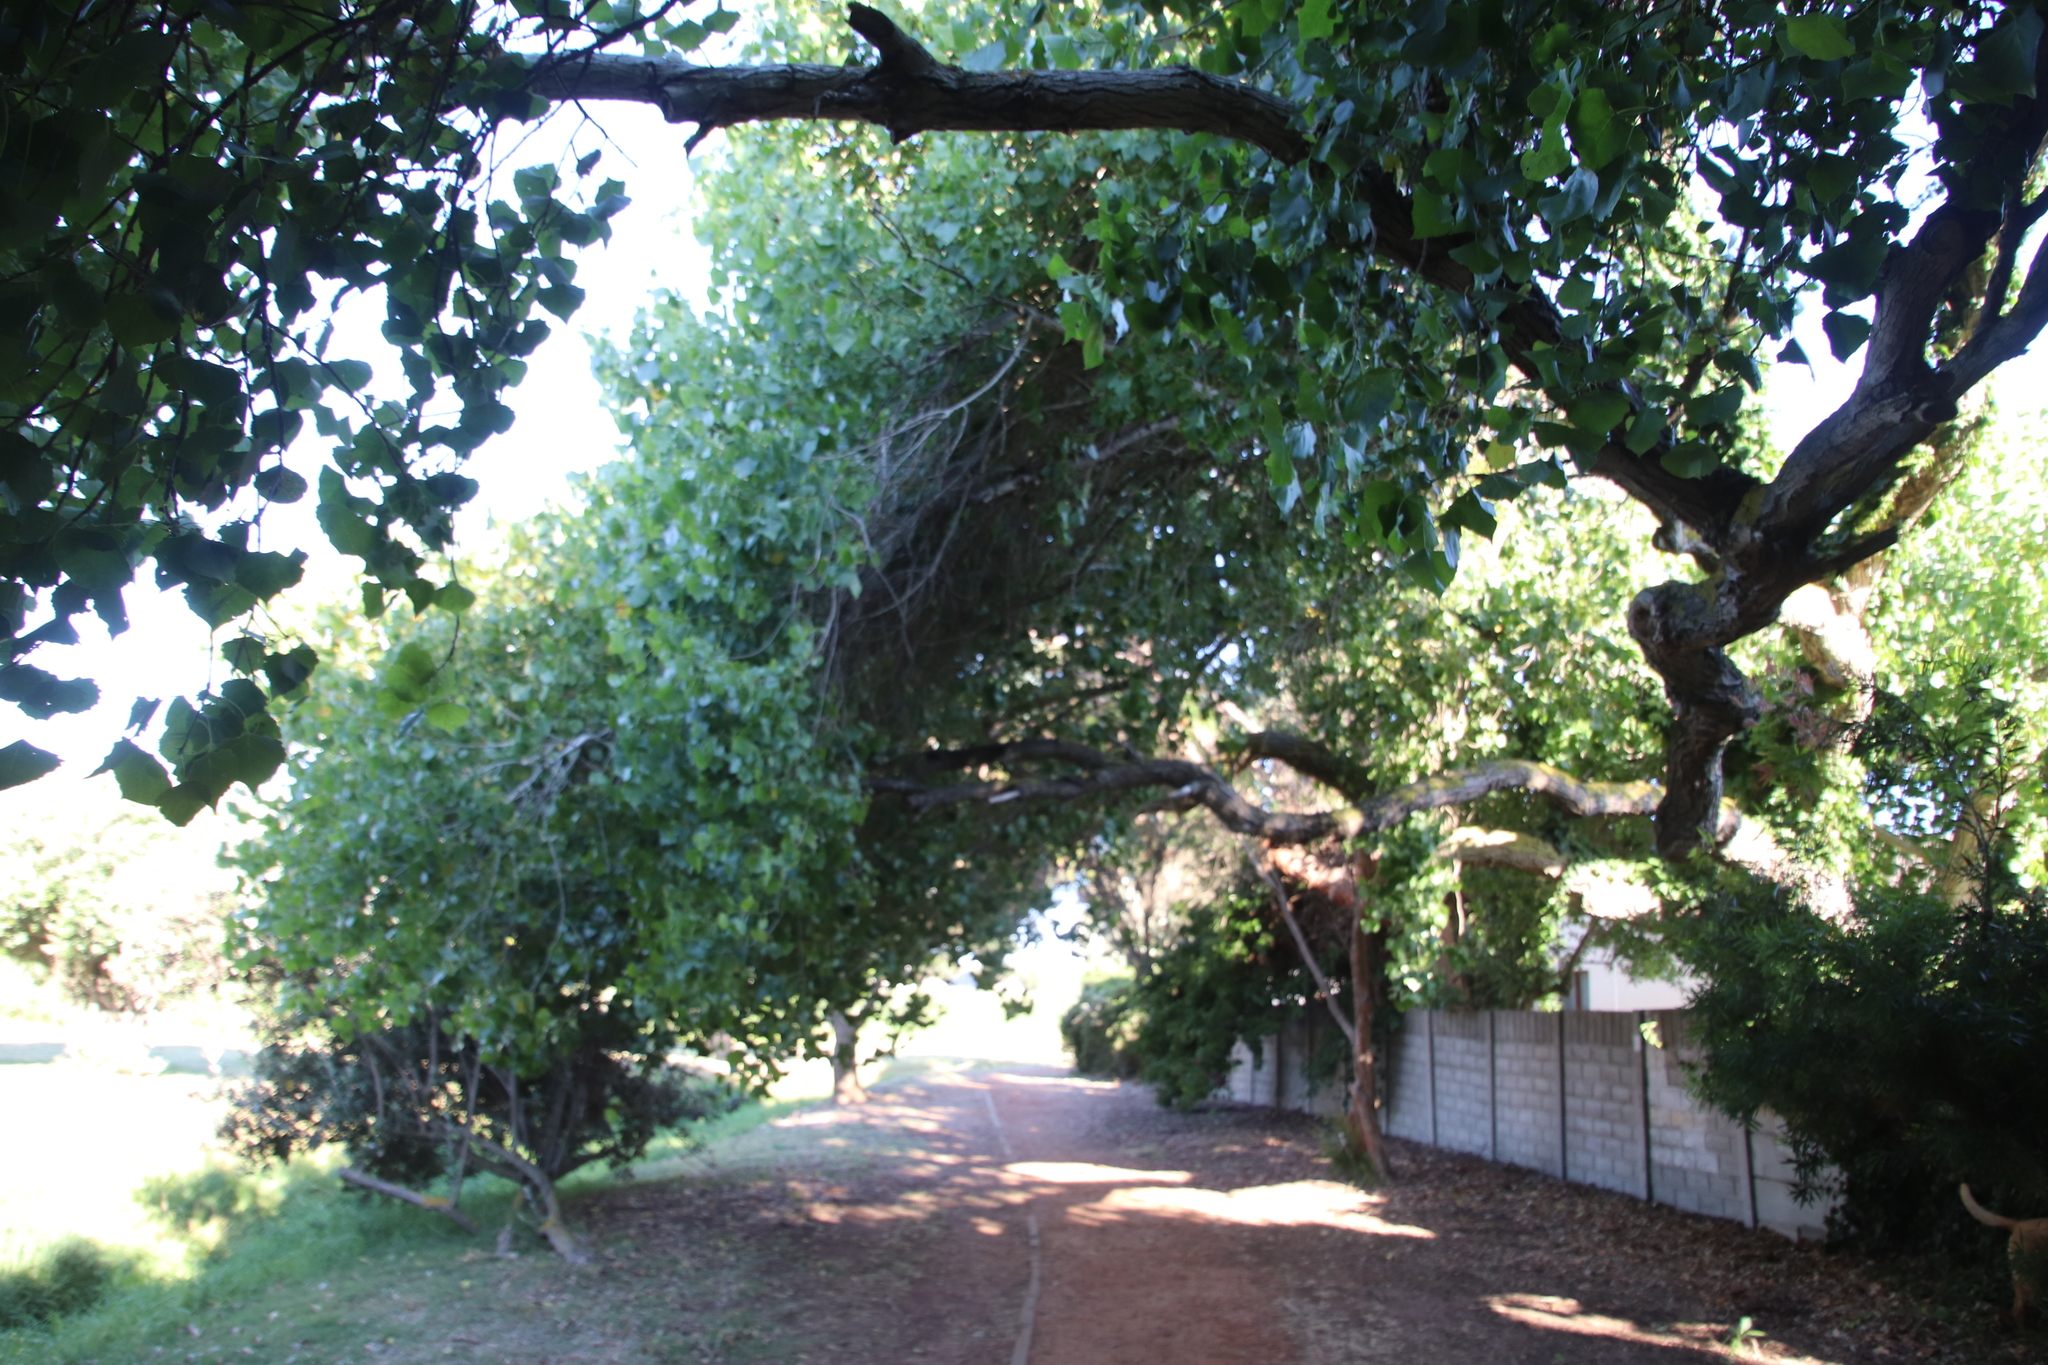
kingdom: Plantae
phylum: Tracheophyta
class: Magnoliopsida
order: Malpighiales
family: Salicaceae
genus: Populus
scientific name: Populus deltoides
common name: Eastern cottonwood
